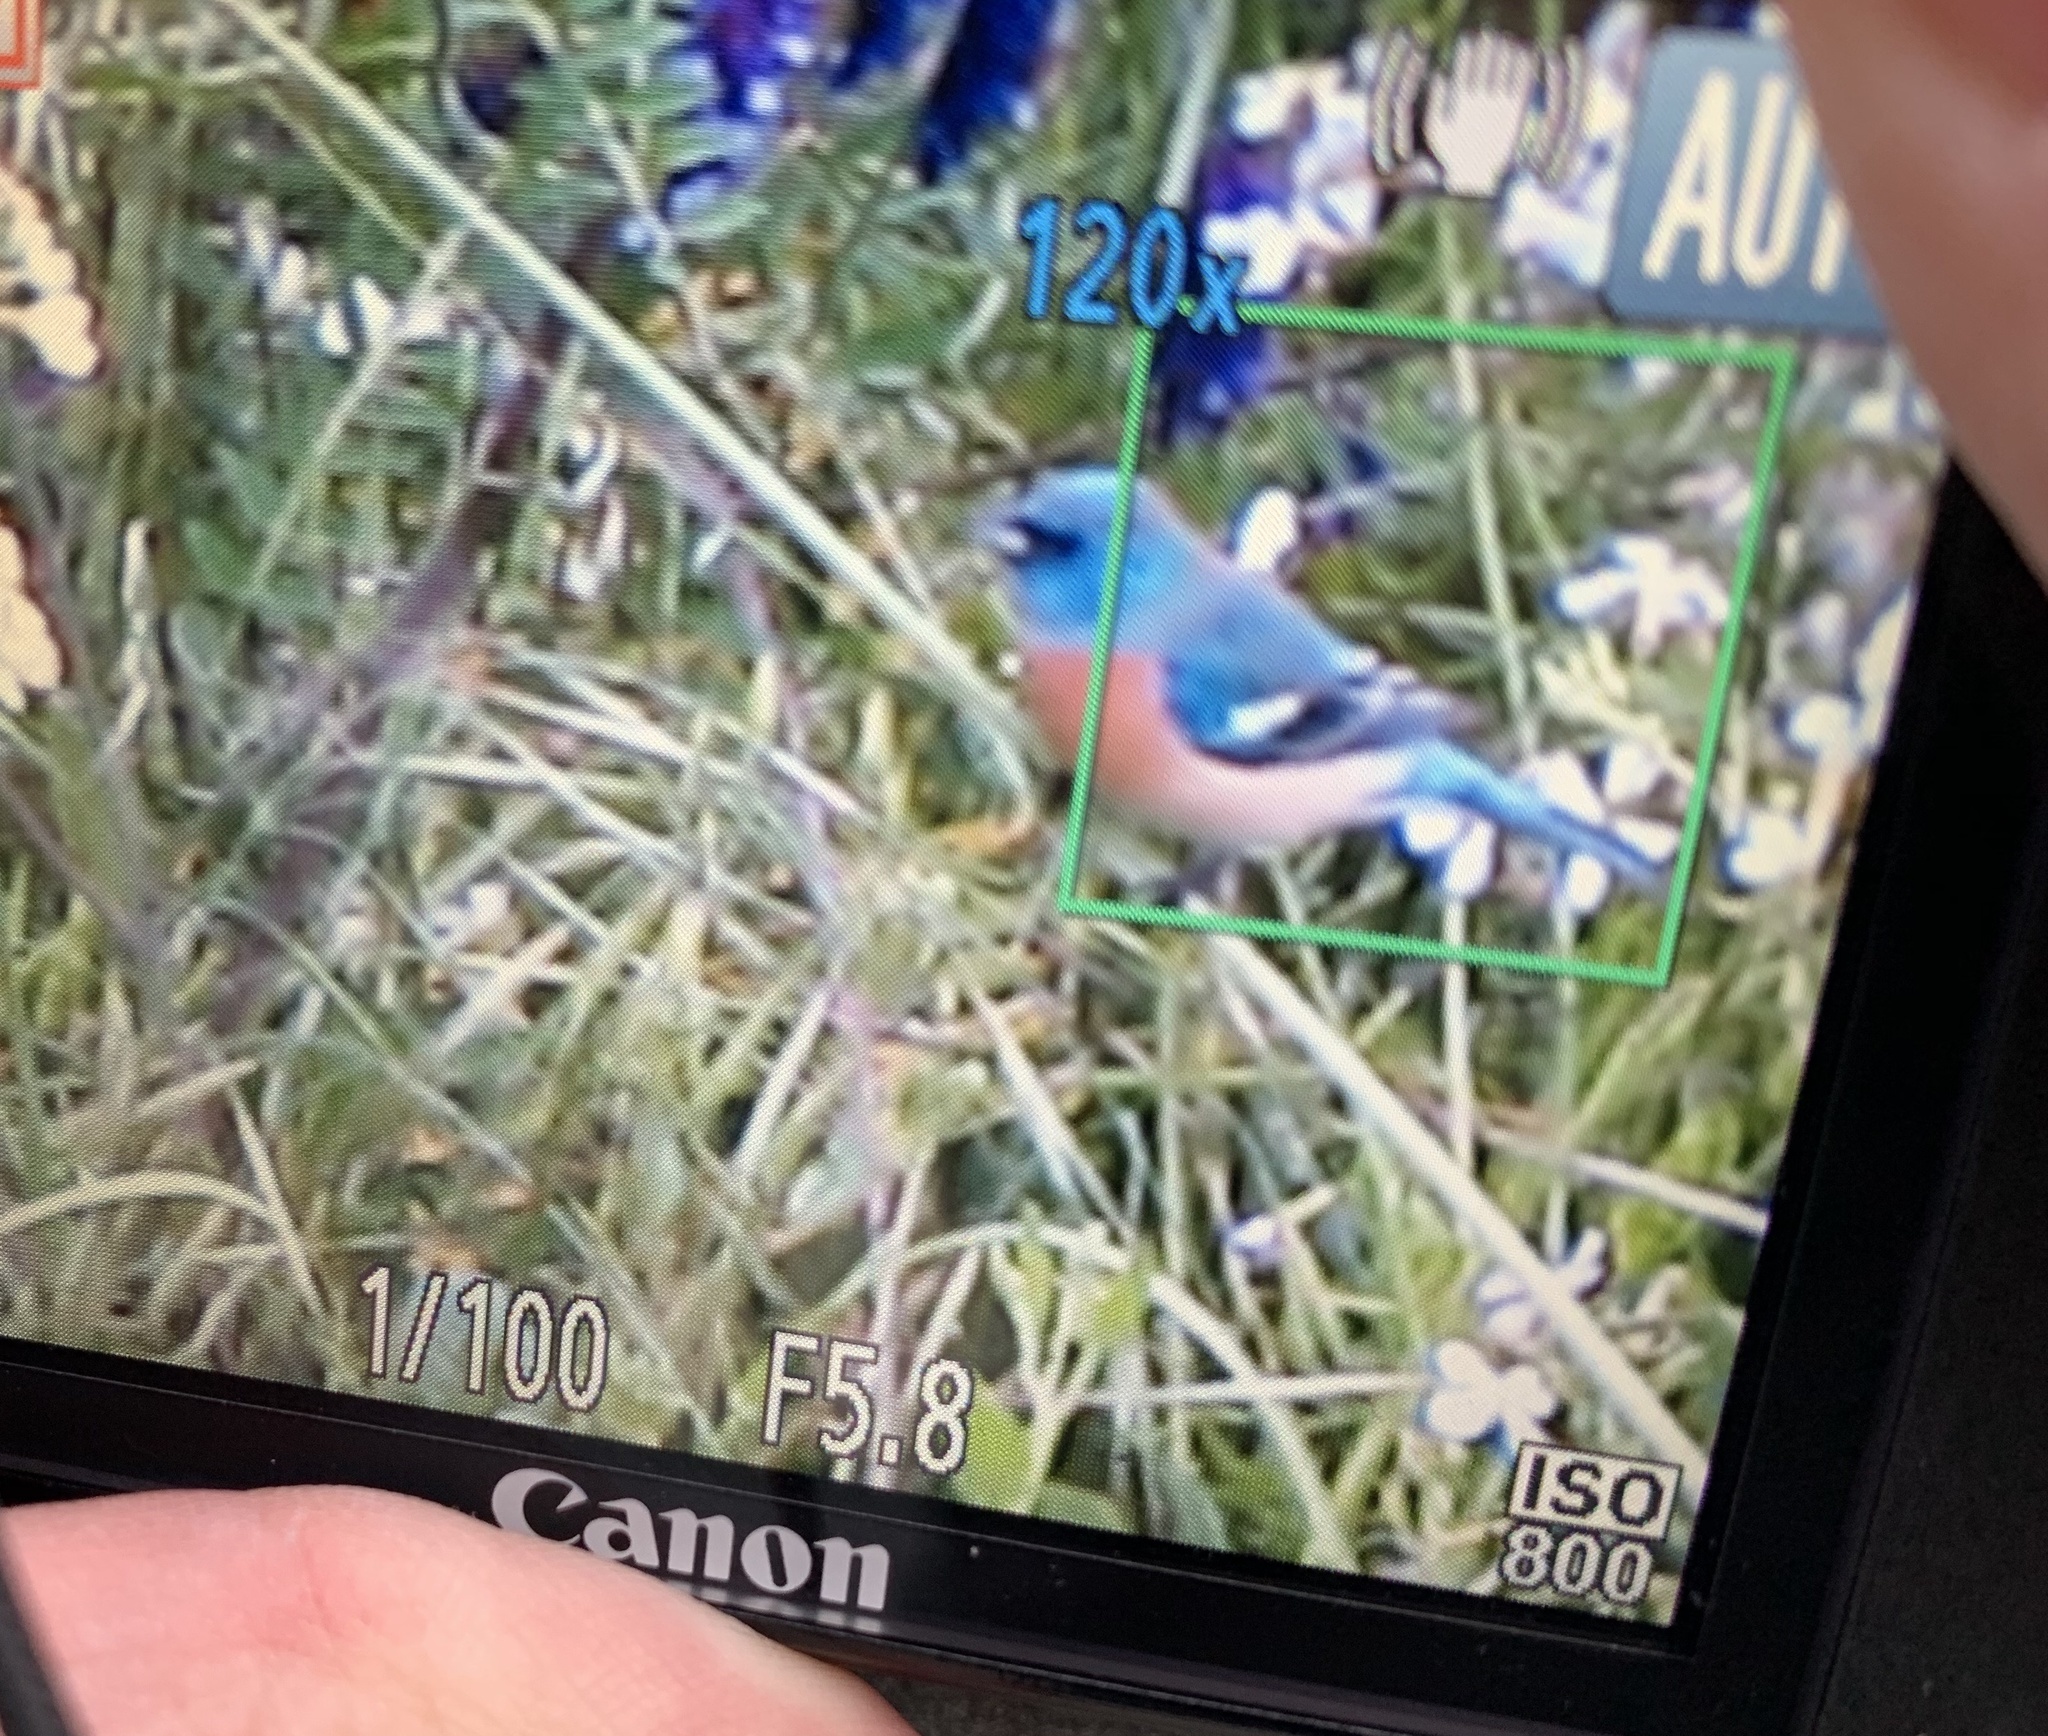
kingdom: Animalia
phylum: Chordata
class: Aves
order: Passeriformes
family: Cardinalidae
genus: Passerina
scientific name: Passerina amoena
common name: Lazuli bunting
